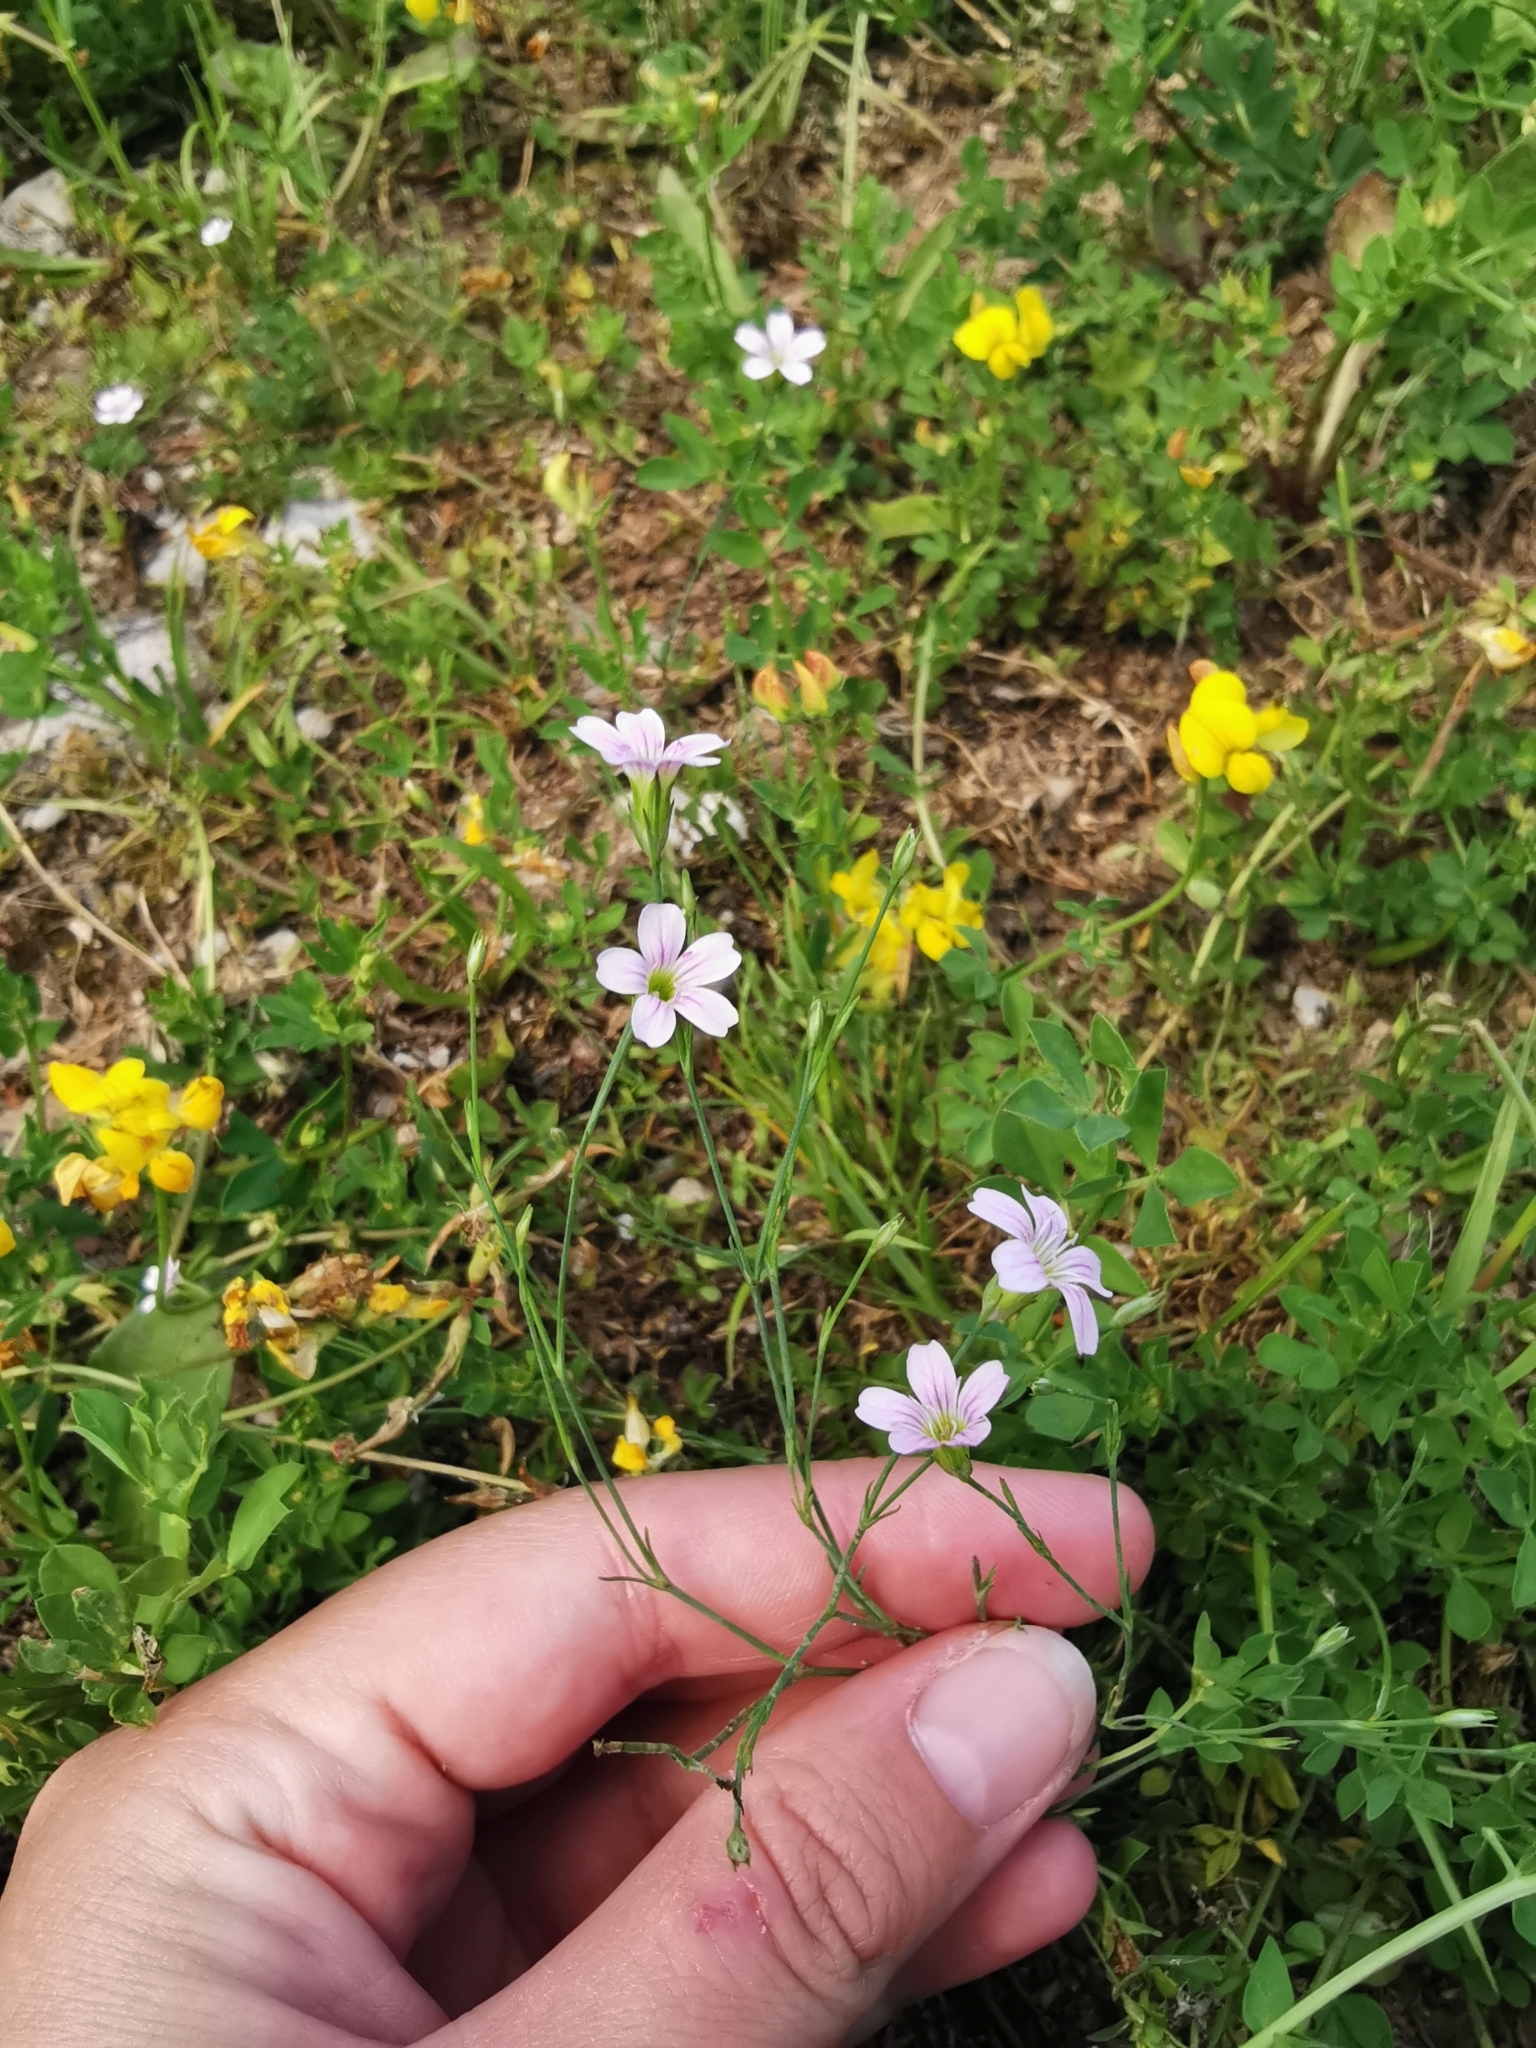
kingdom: Plantae
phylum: Tracheophyta
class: Magnoliopsida
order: Caryophyllales
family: Caryophyllaceae
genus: Petrorhagia
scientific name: Petrorhagia saxifraga
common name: Tunicflower
